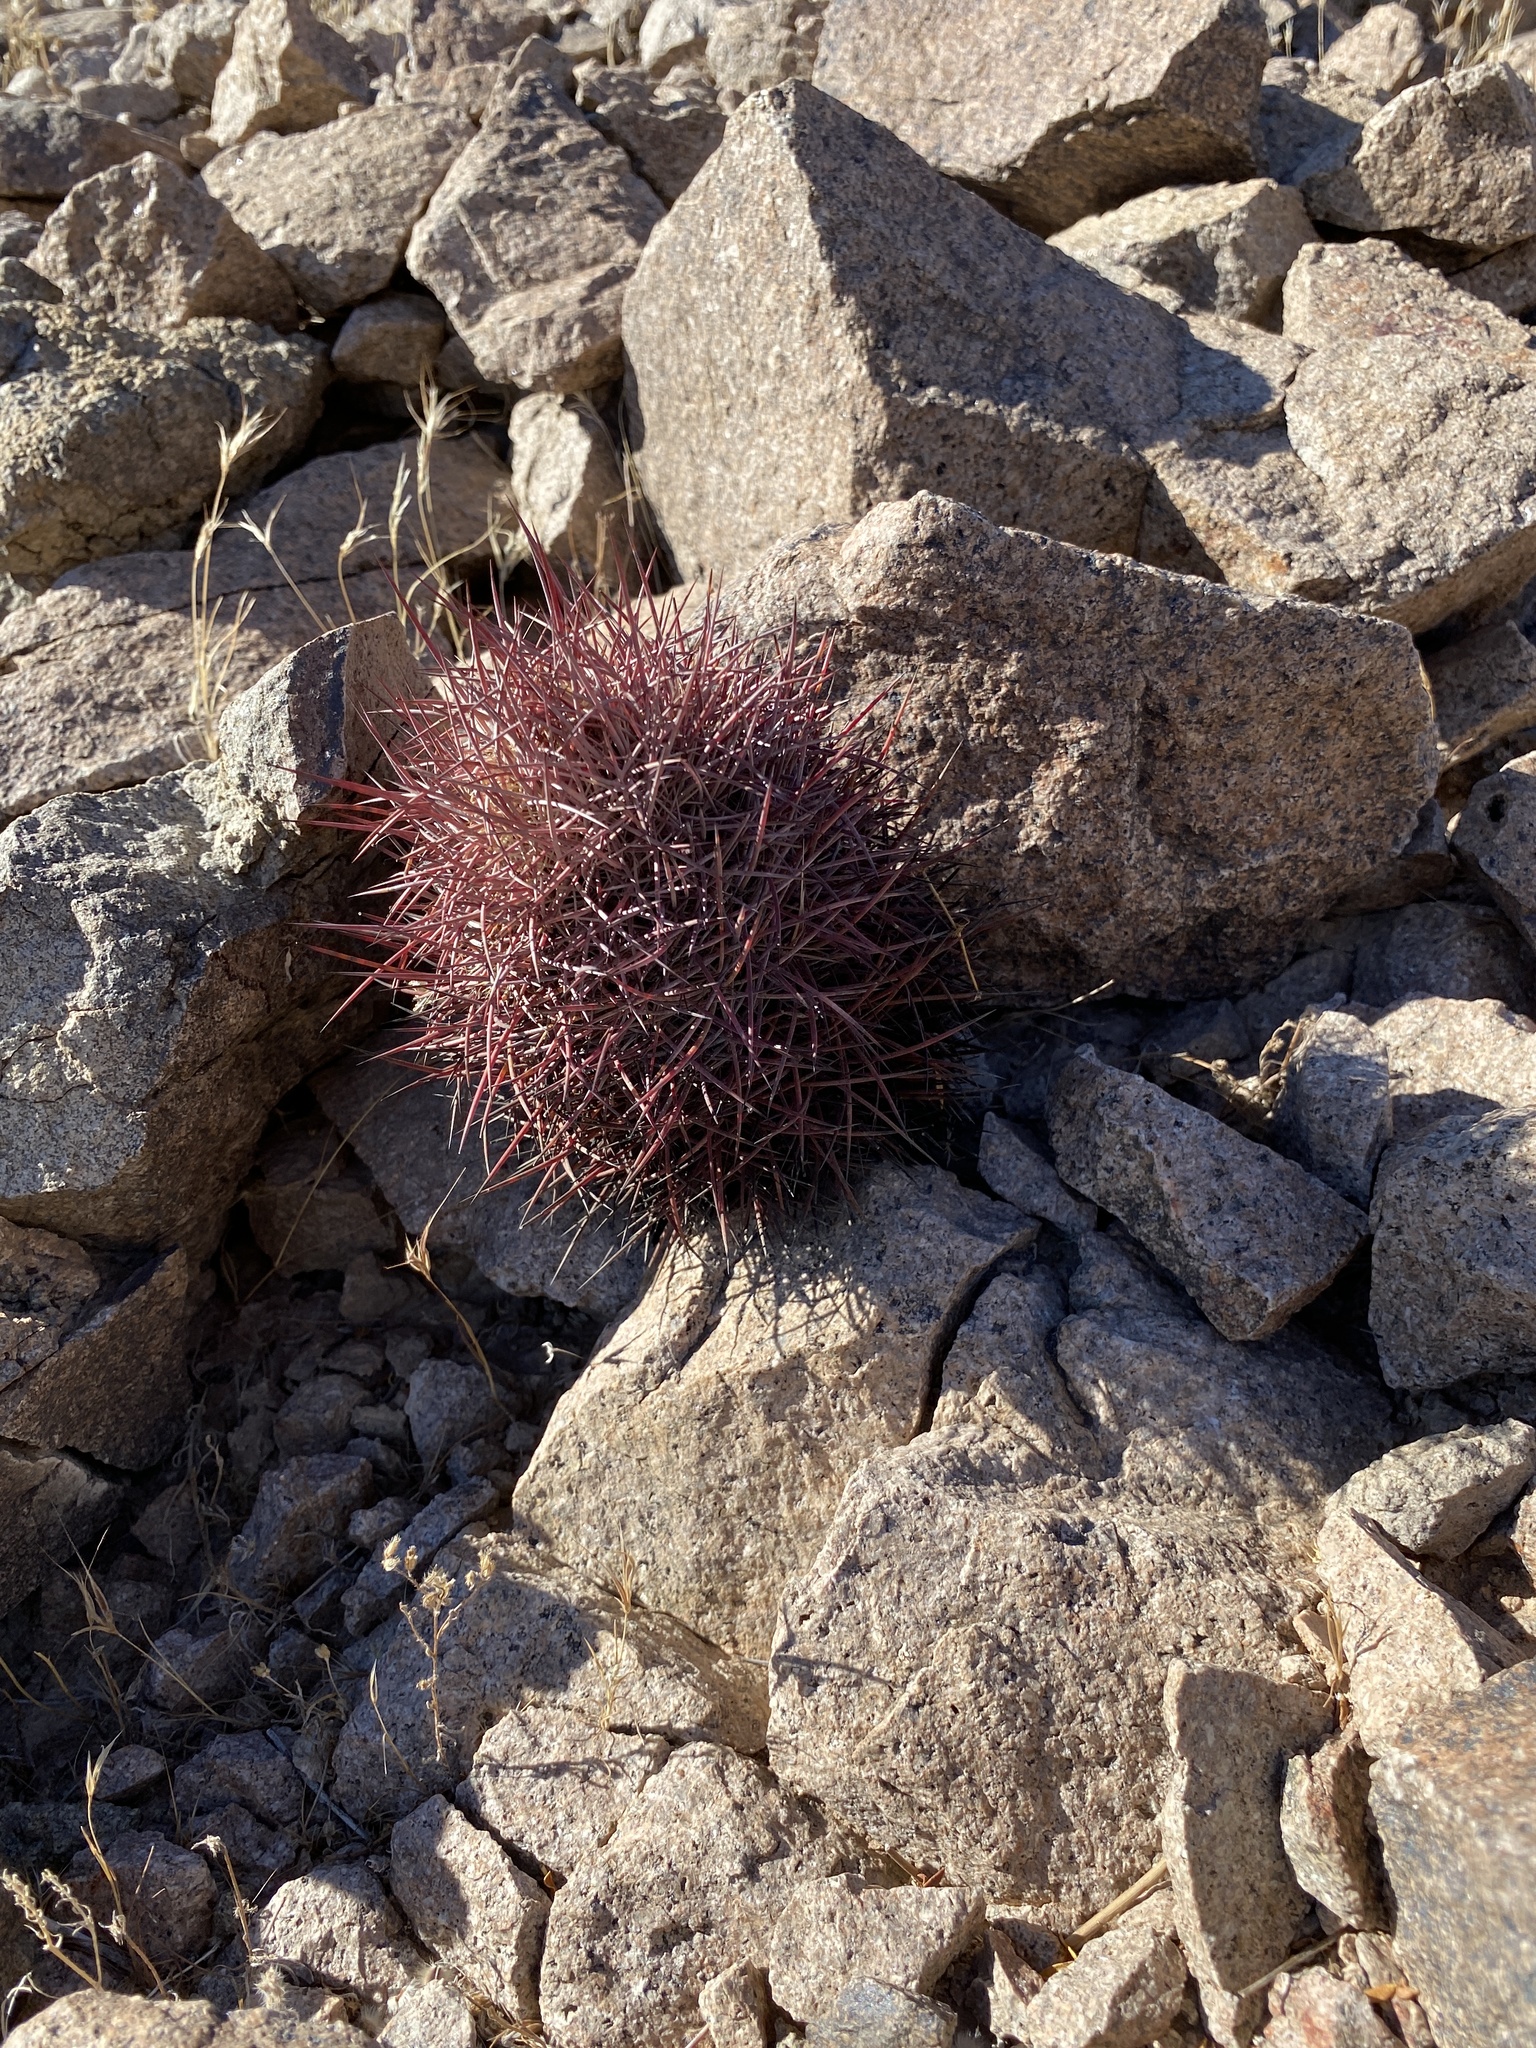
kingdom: Plantae
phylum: Tracheophyta
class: Magnoliopsida
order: Caryophyllales
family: Cactaceae
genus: Sclerocactus
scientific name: Sclerocactus johnsonii
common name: Eight-spine fishhook cactus
